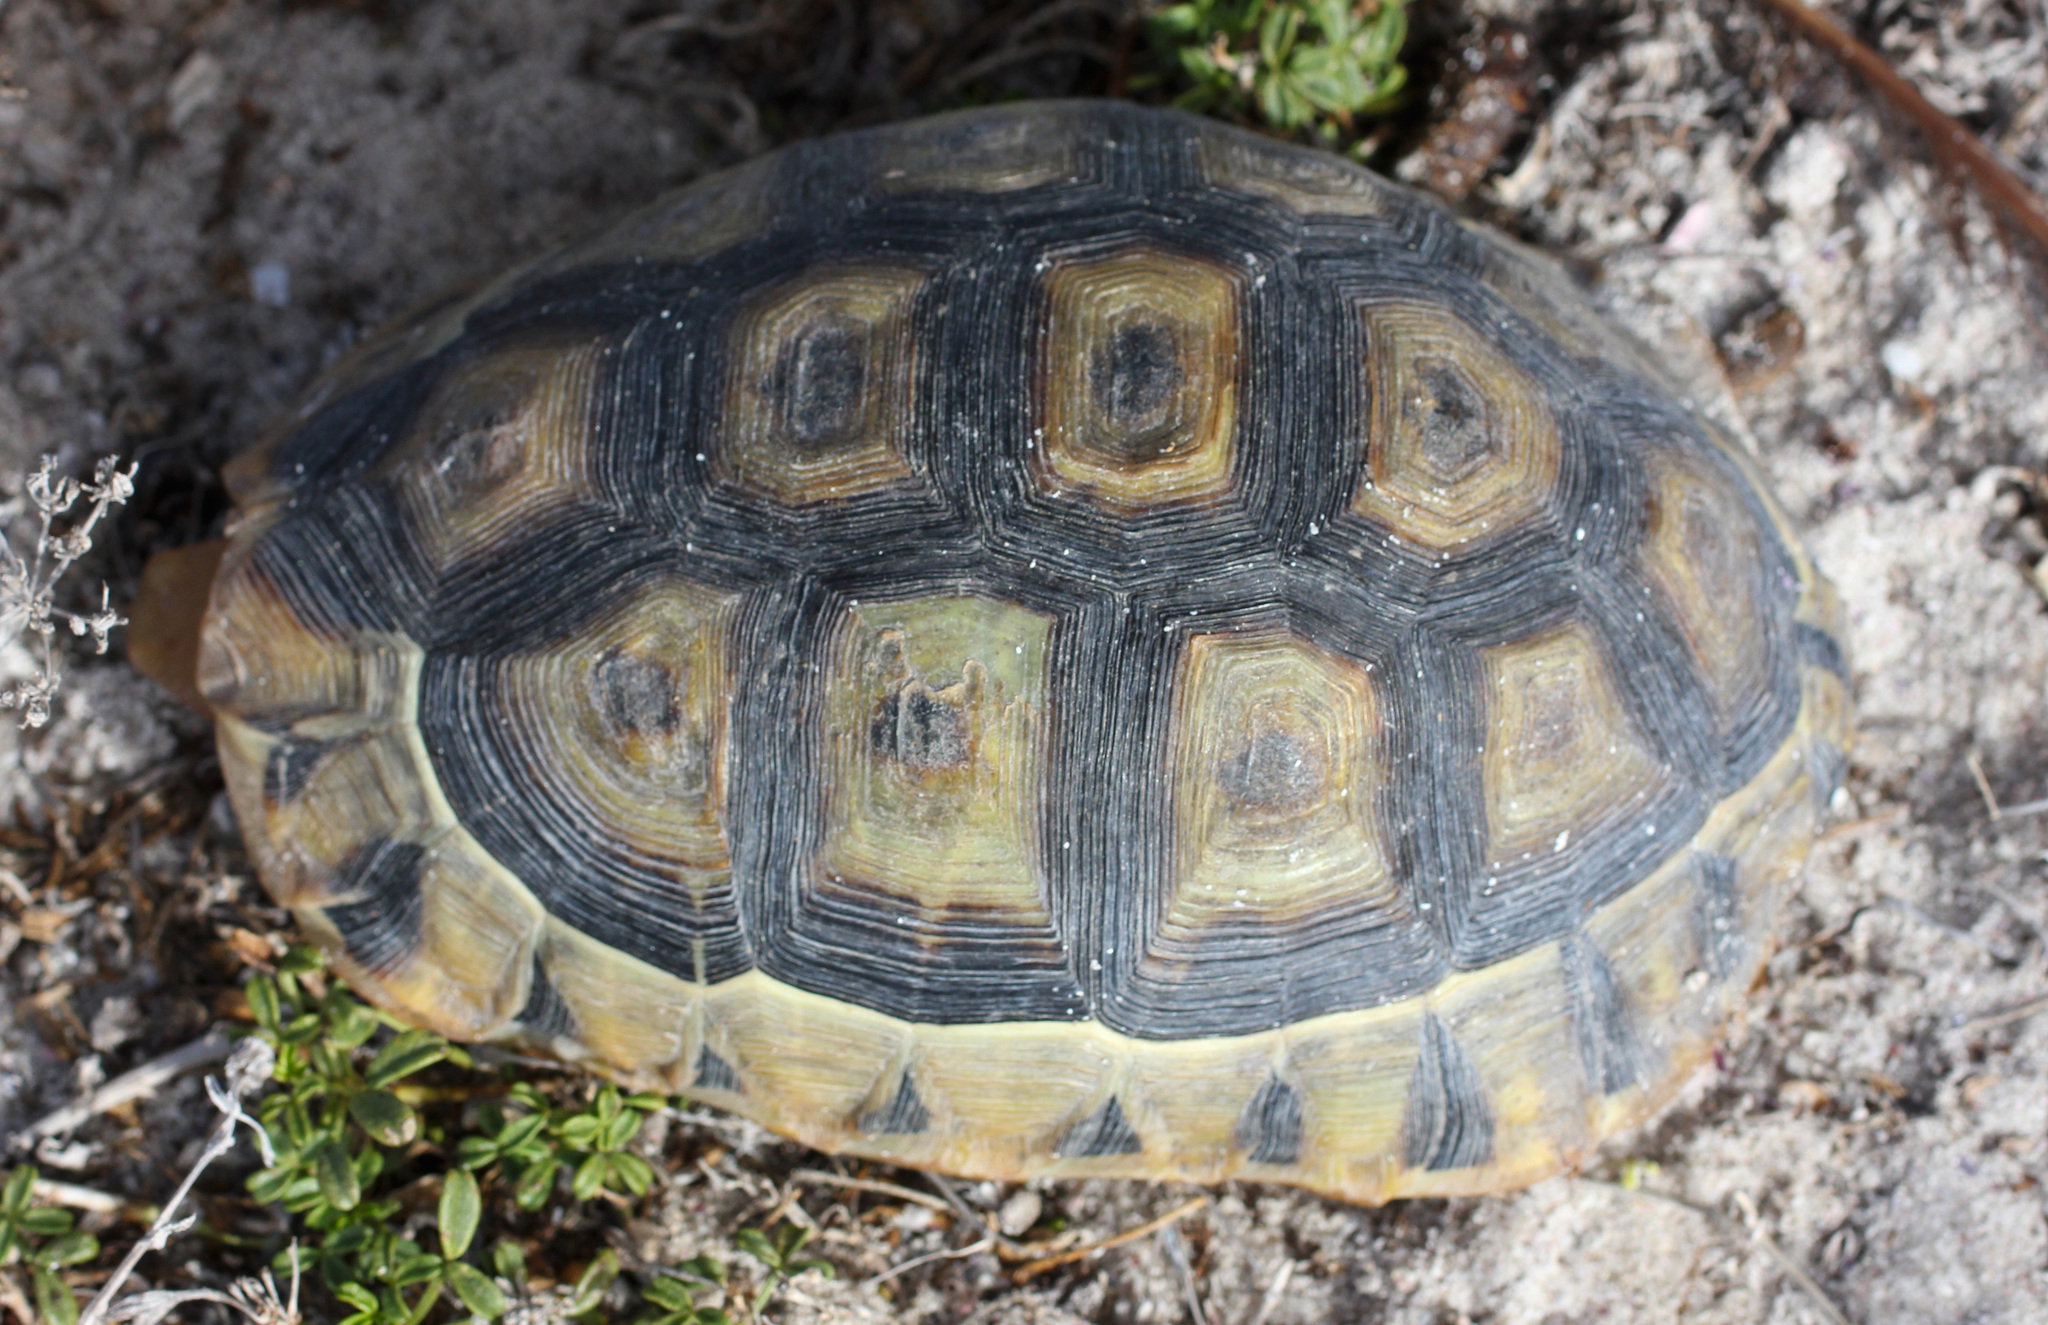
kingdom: Animalia
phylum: Chordata
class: Testudines
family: Testudinidae
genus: Chersina
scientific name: Chersina angulata
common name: South african bowsprit tortoise
